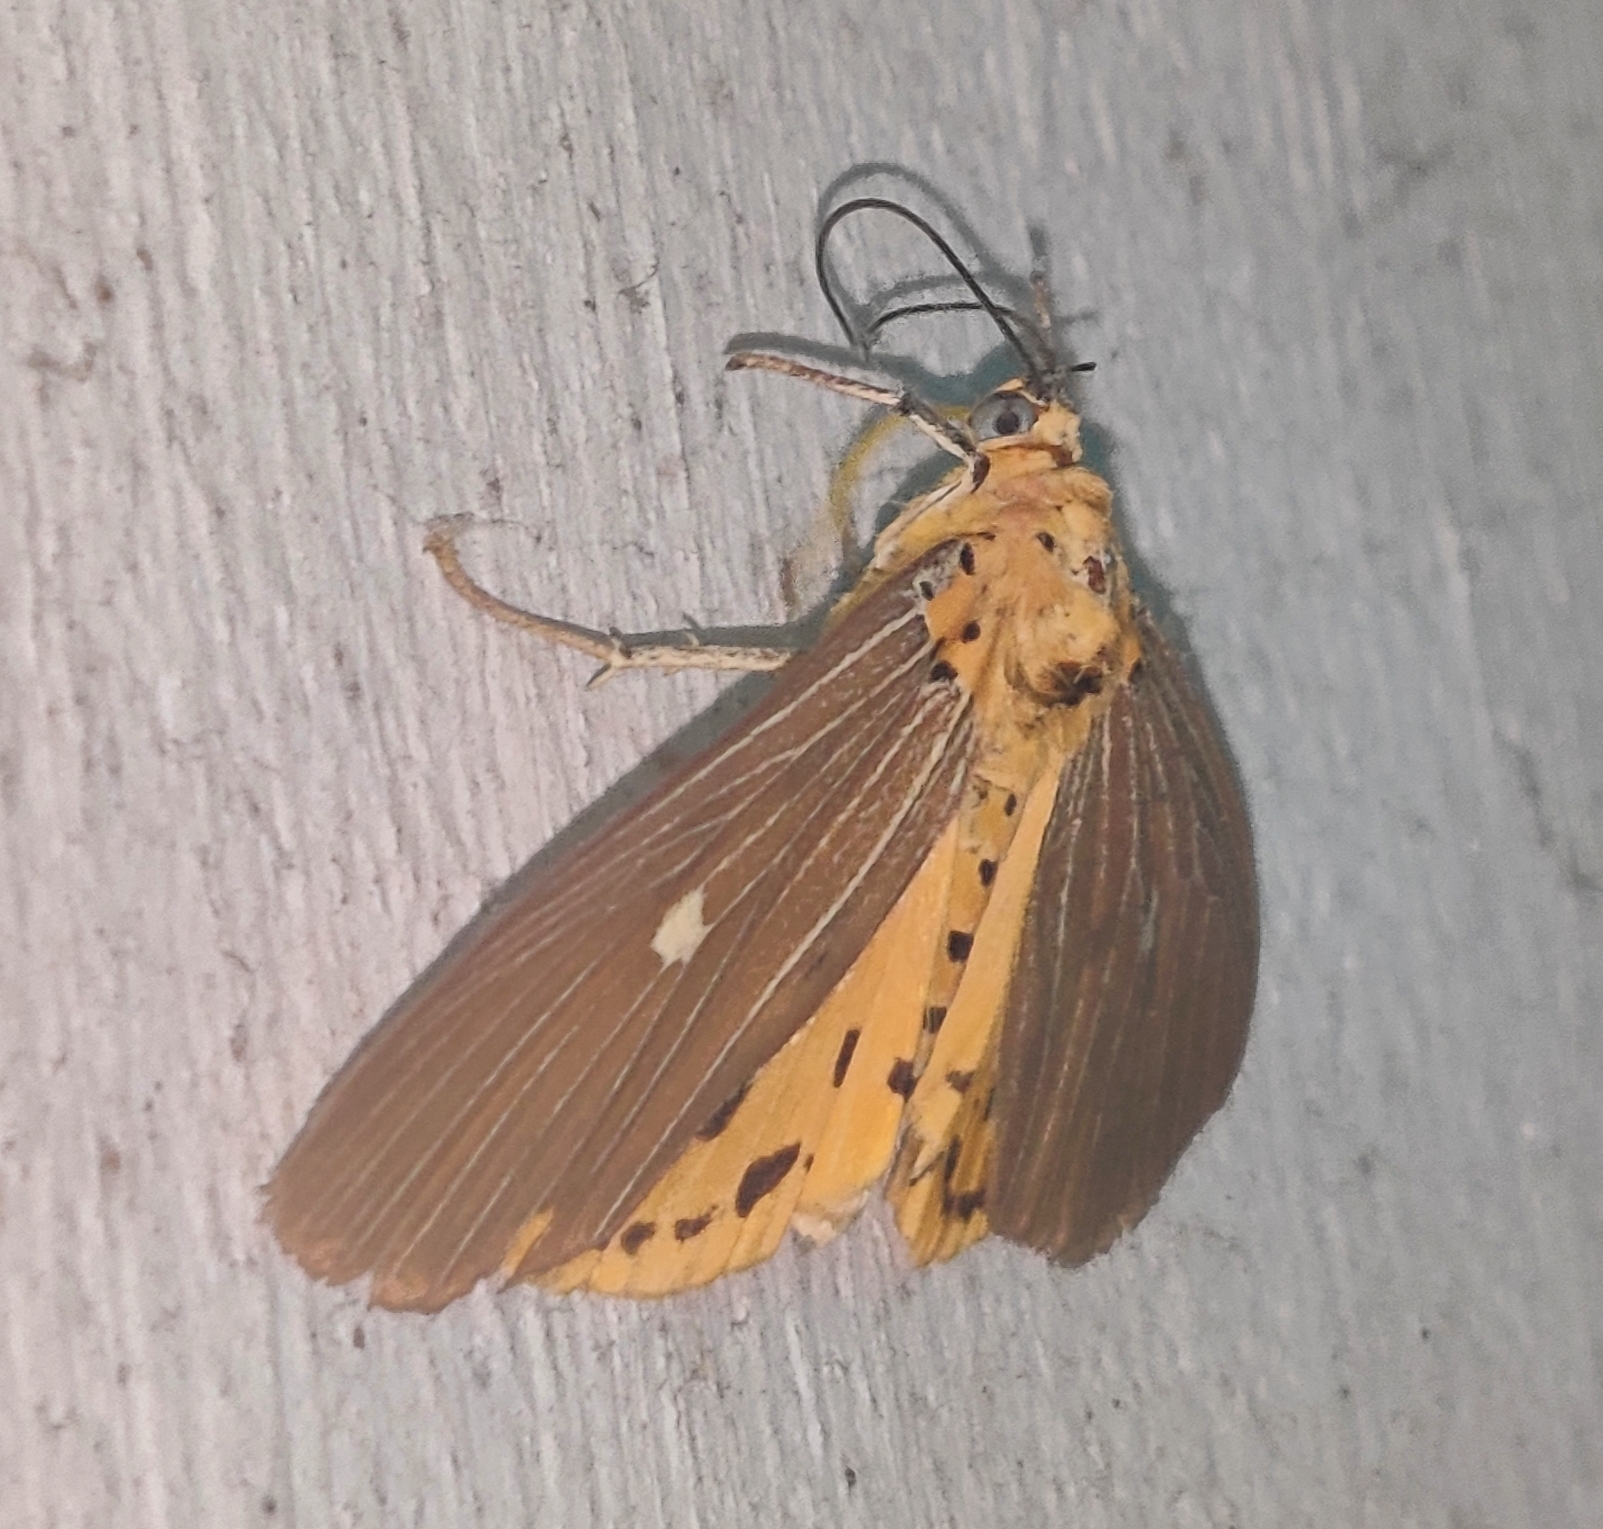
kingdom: Animalia
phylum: Arthropoda
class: Insecta
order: Lepidoptera
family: Erebidae
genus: Asota
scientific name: Asota caricae
